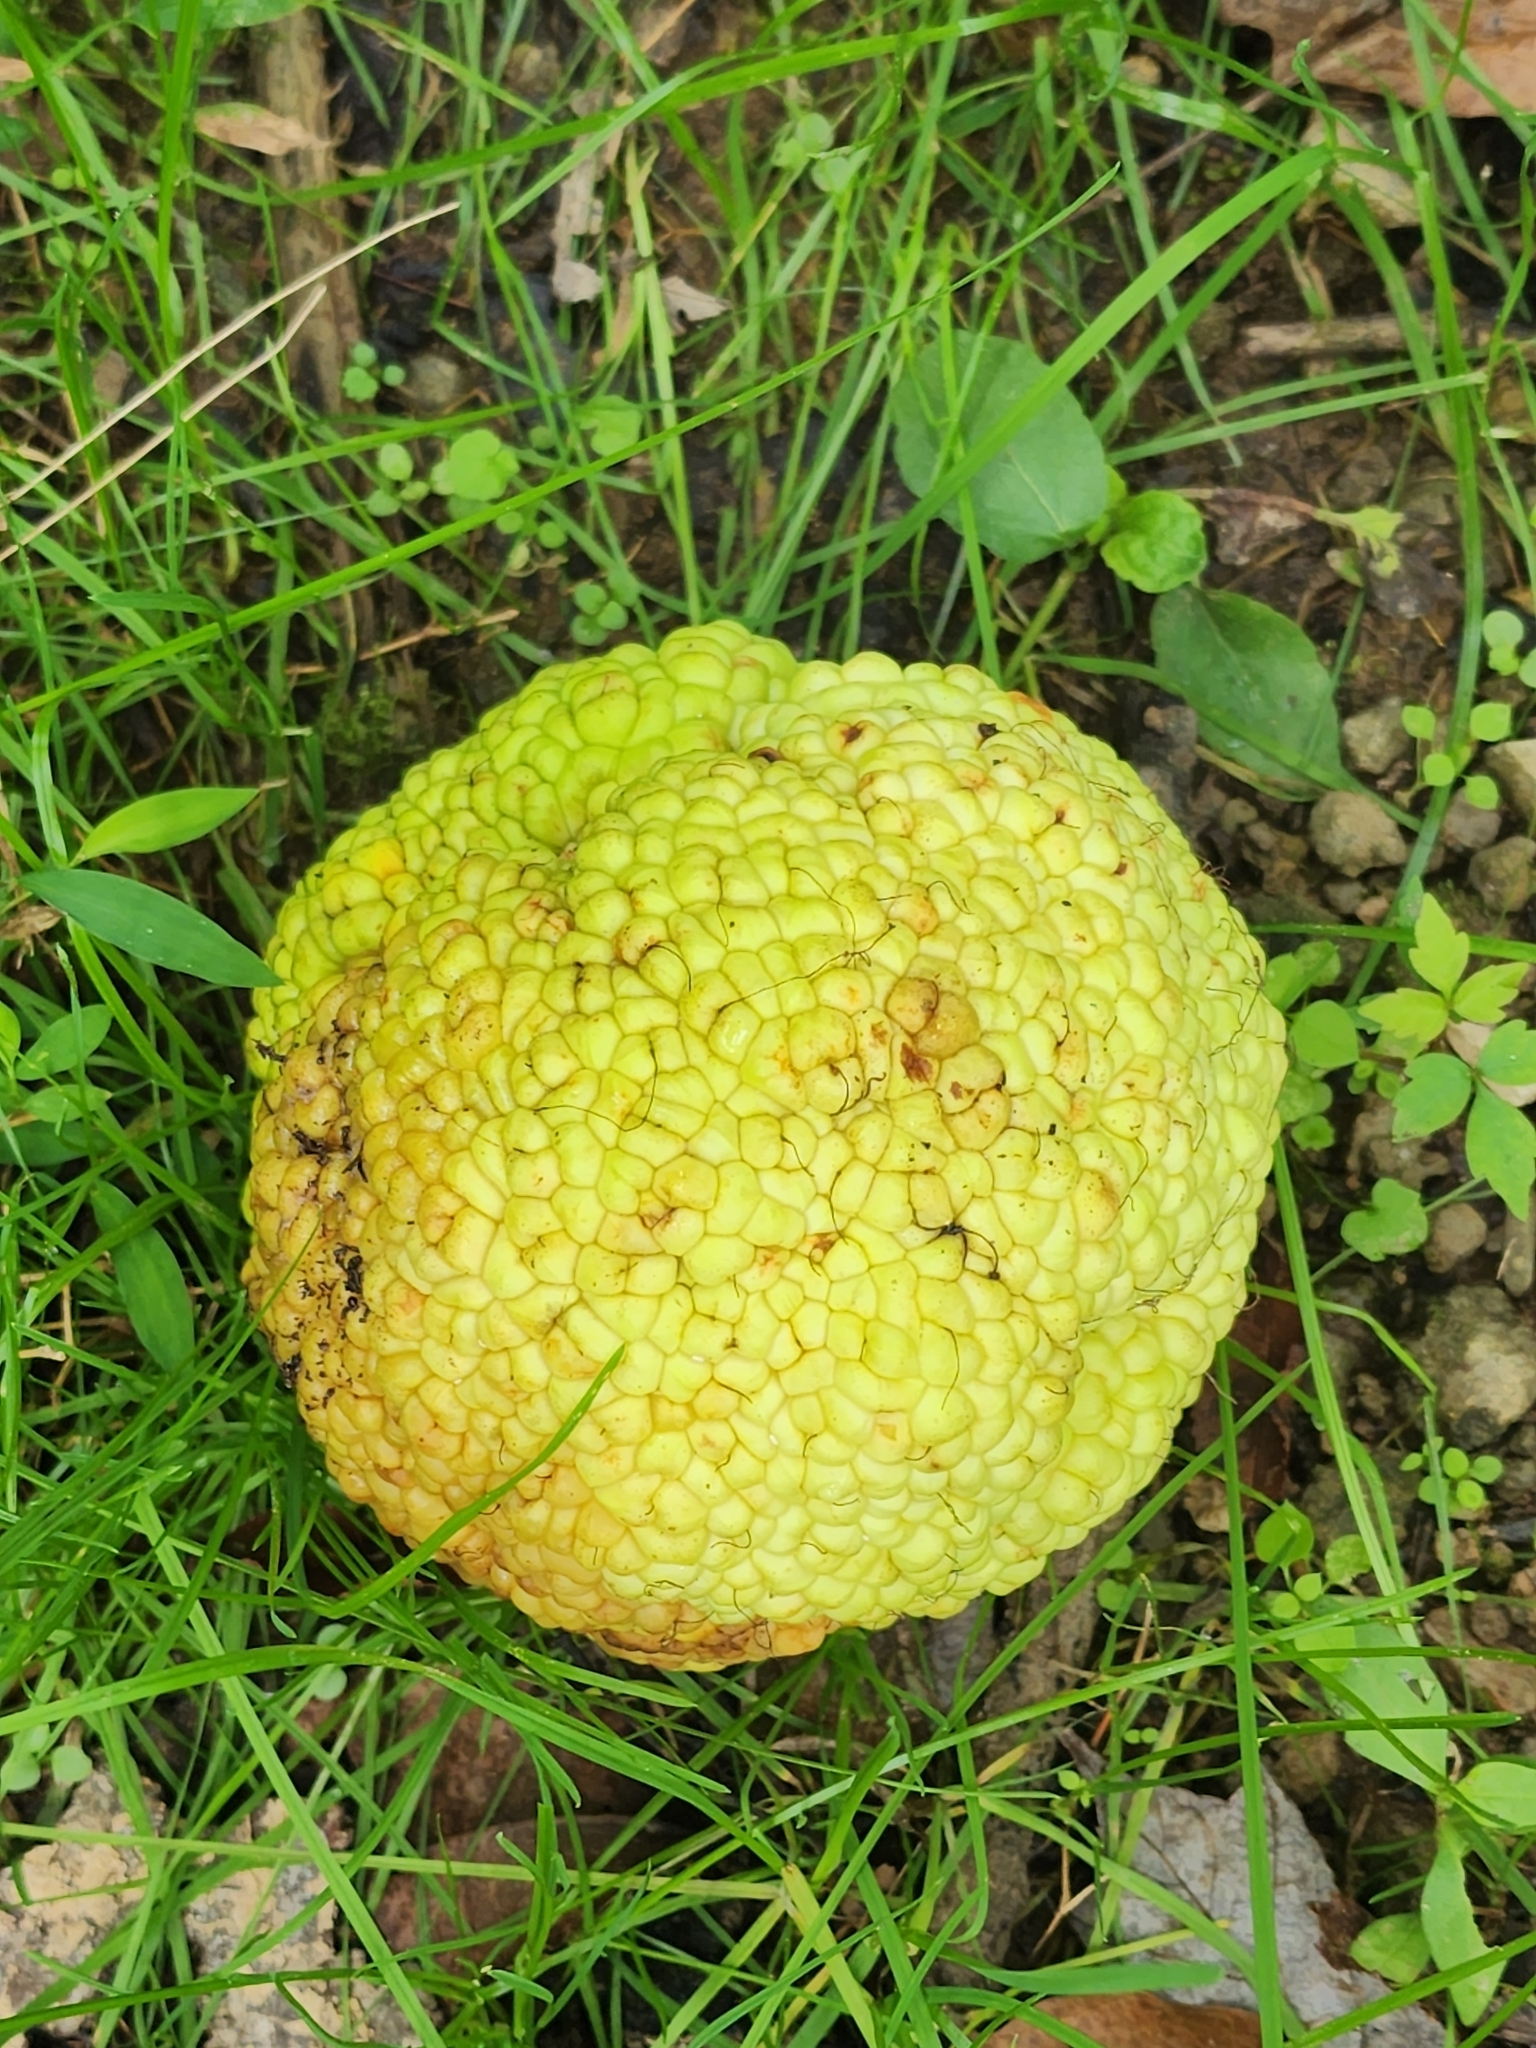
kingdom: Plantae
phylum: Tracheophyta
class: Magnoliopsida
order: Rosales
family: Moraceae
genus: Maclura
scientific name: Maclura pomifera
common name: Osage-orange
